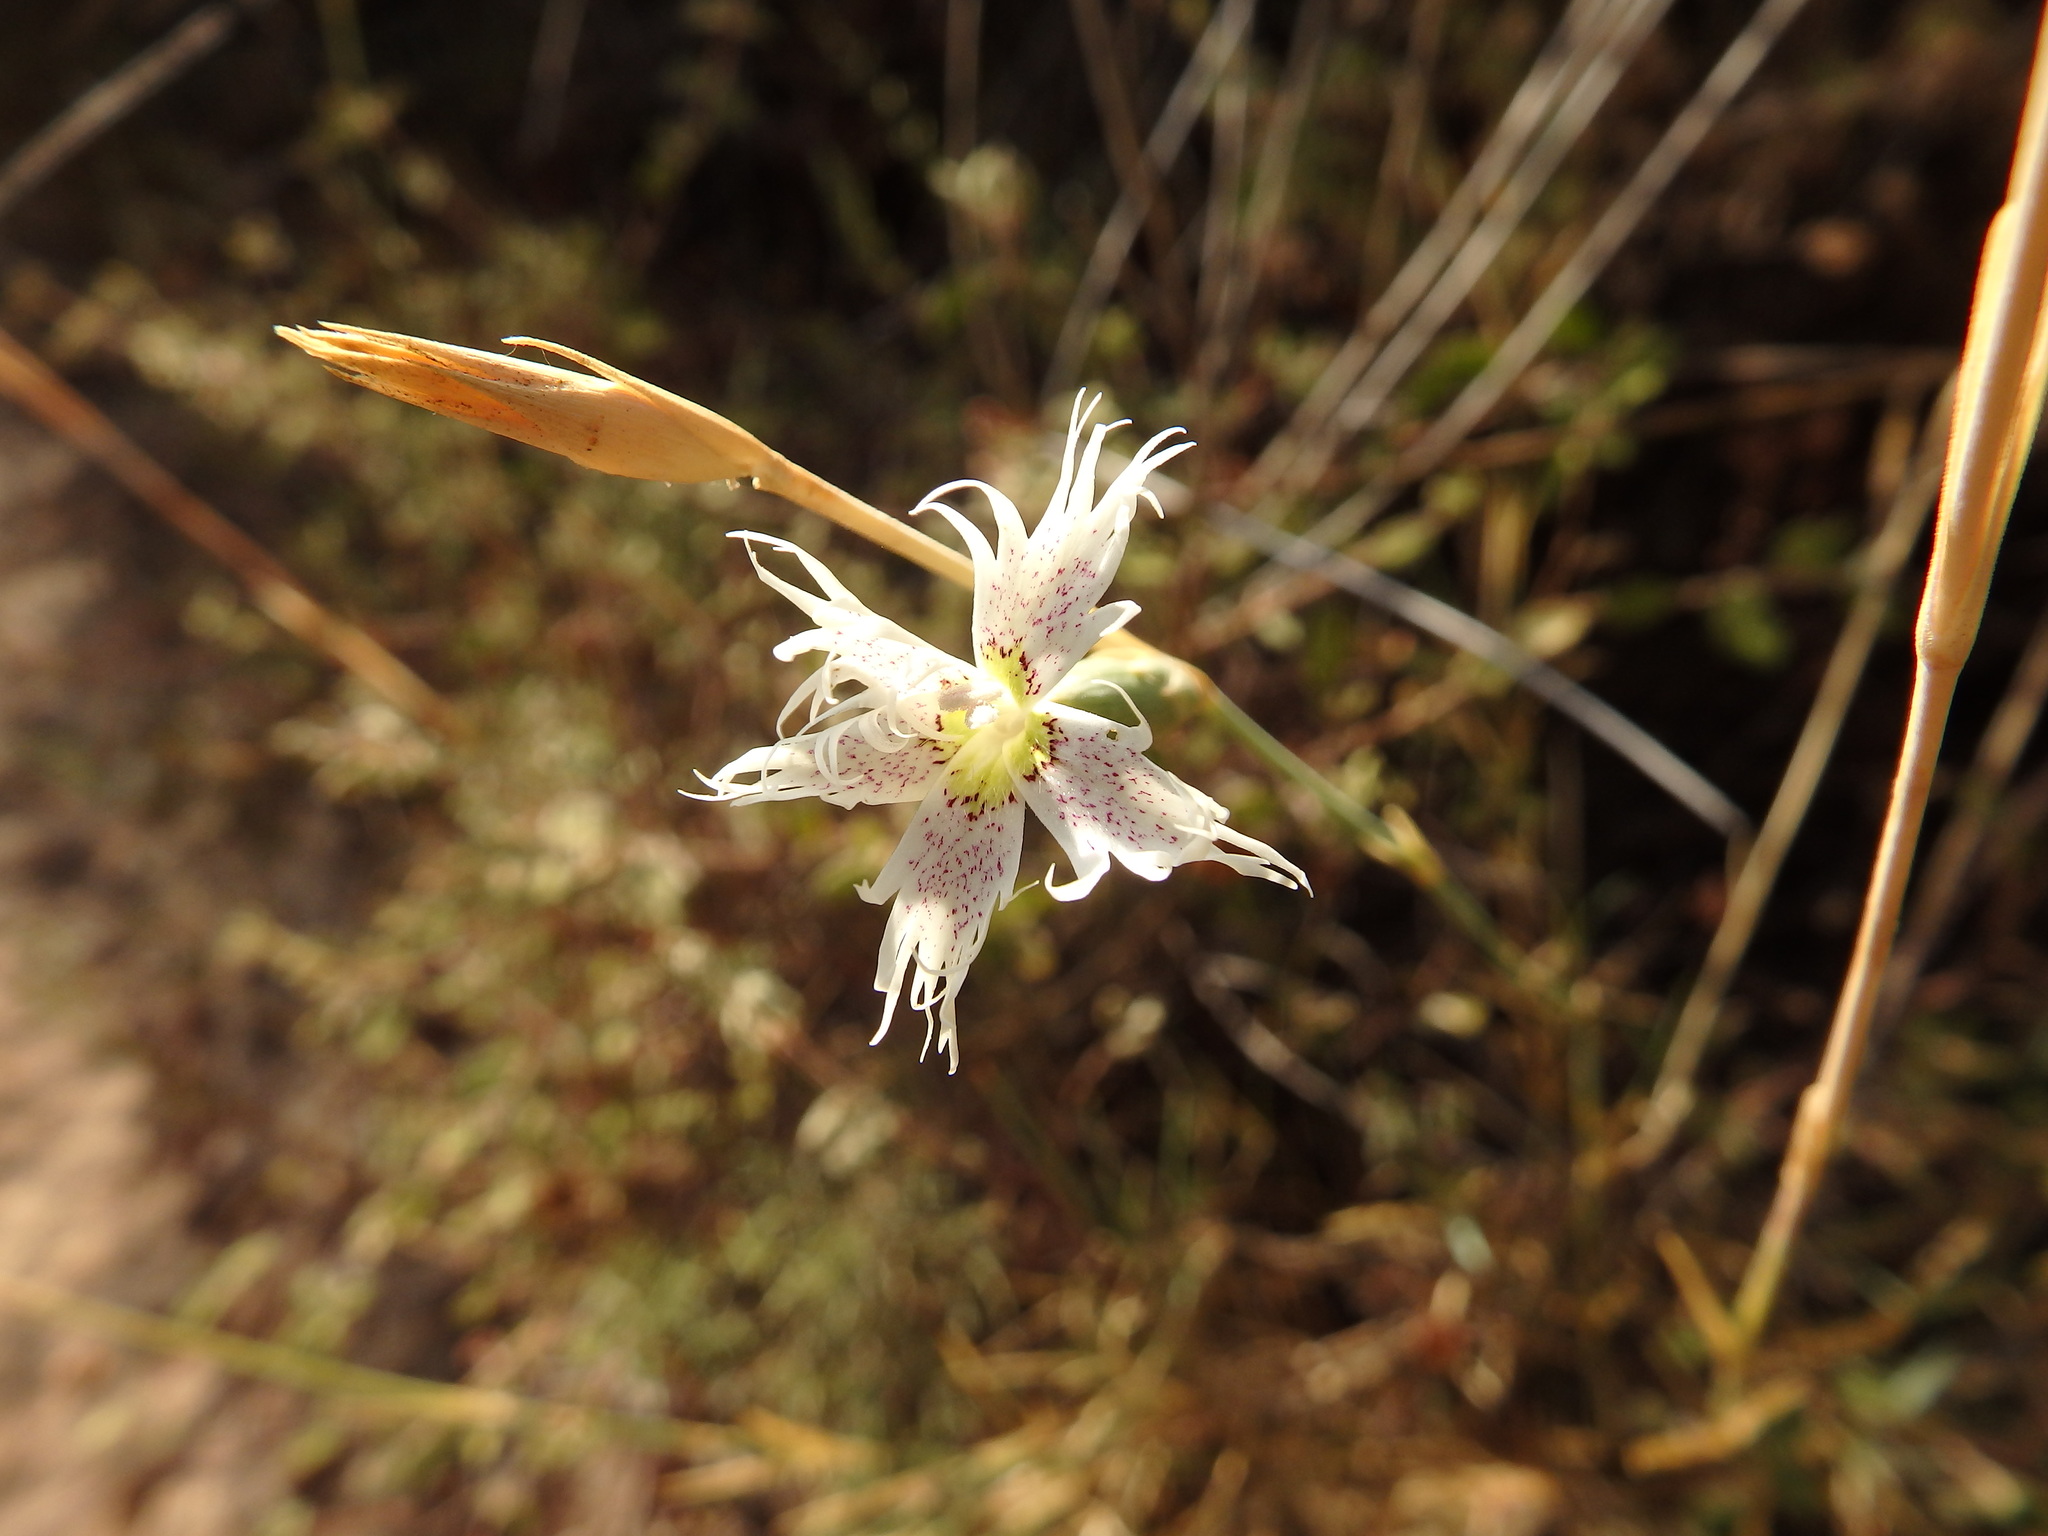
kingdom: Plantae
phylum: Tracheophyta
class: Magnoliopsida
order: Caryophyllales
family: Caryophyllaceae
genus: Dianthus
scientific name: Dianthus broteri
